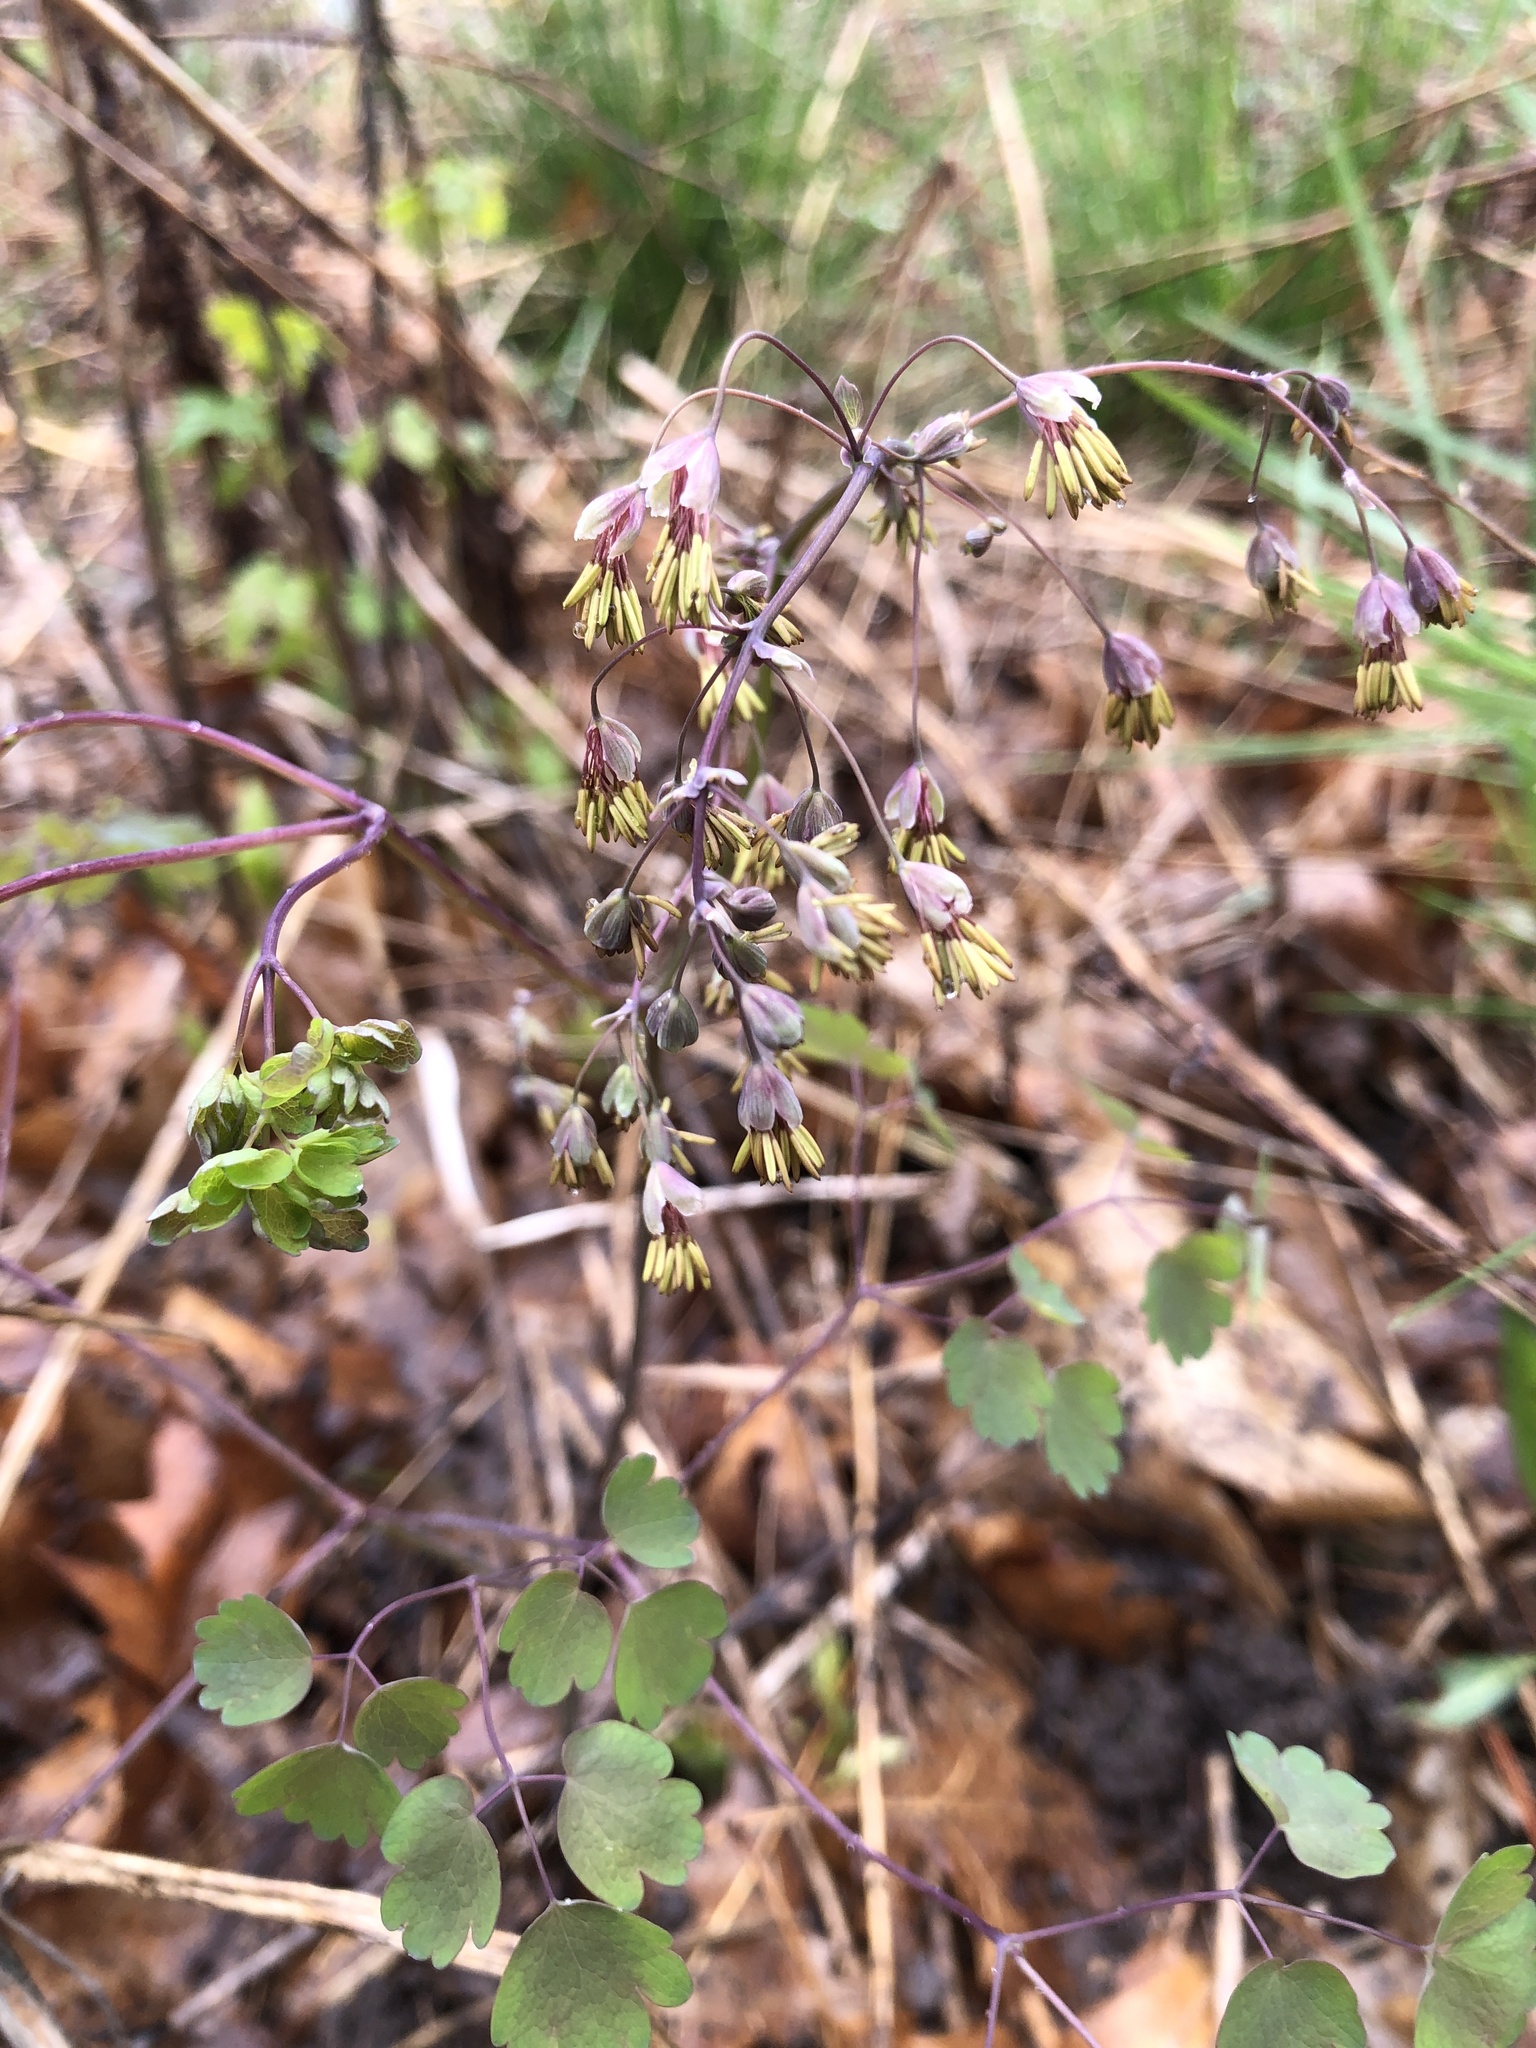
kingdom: Plantae
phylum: Tracheophyta
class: Magnoliopsida
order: Ranunculales
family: Ranunculaceae
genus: Thalictrum
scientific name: Thalictrum dioicum
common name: Early meadow-rue
